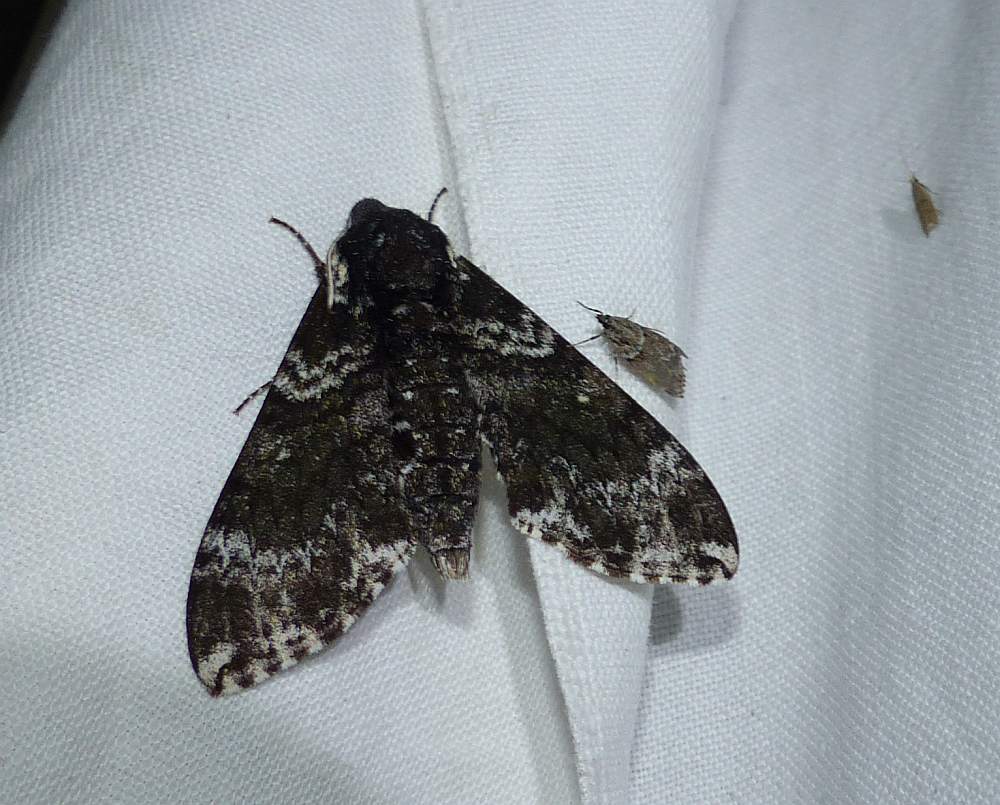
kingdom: Animalia
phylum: Arthropoda
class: Insecta
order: Lepidoptera
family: Sphingidae
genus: Dolba
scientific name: Dolba hyloeus
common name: Pawpaw sphinx
